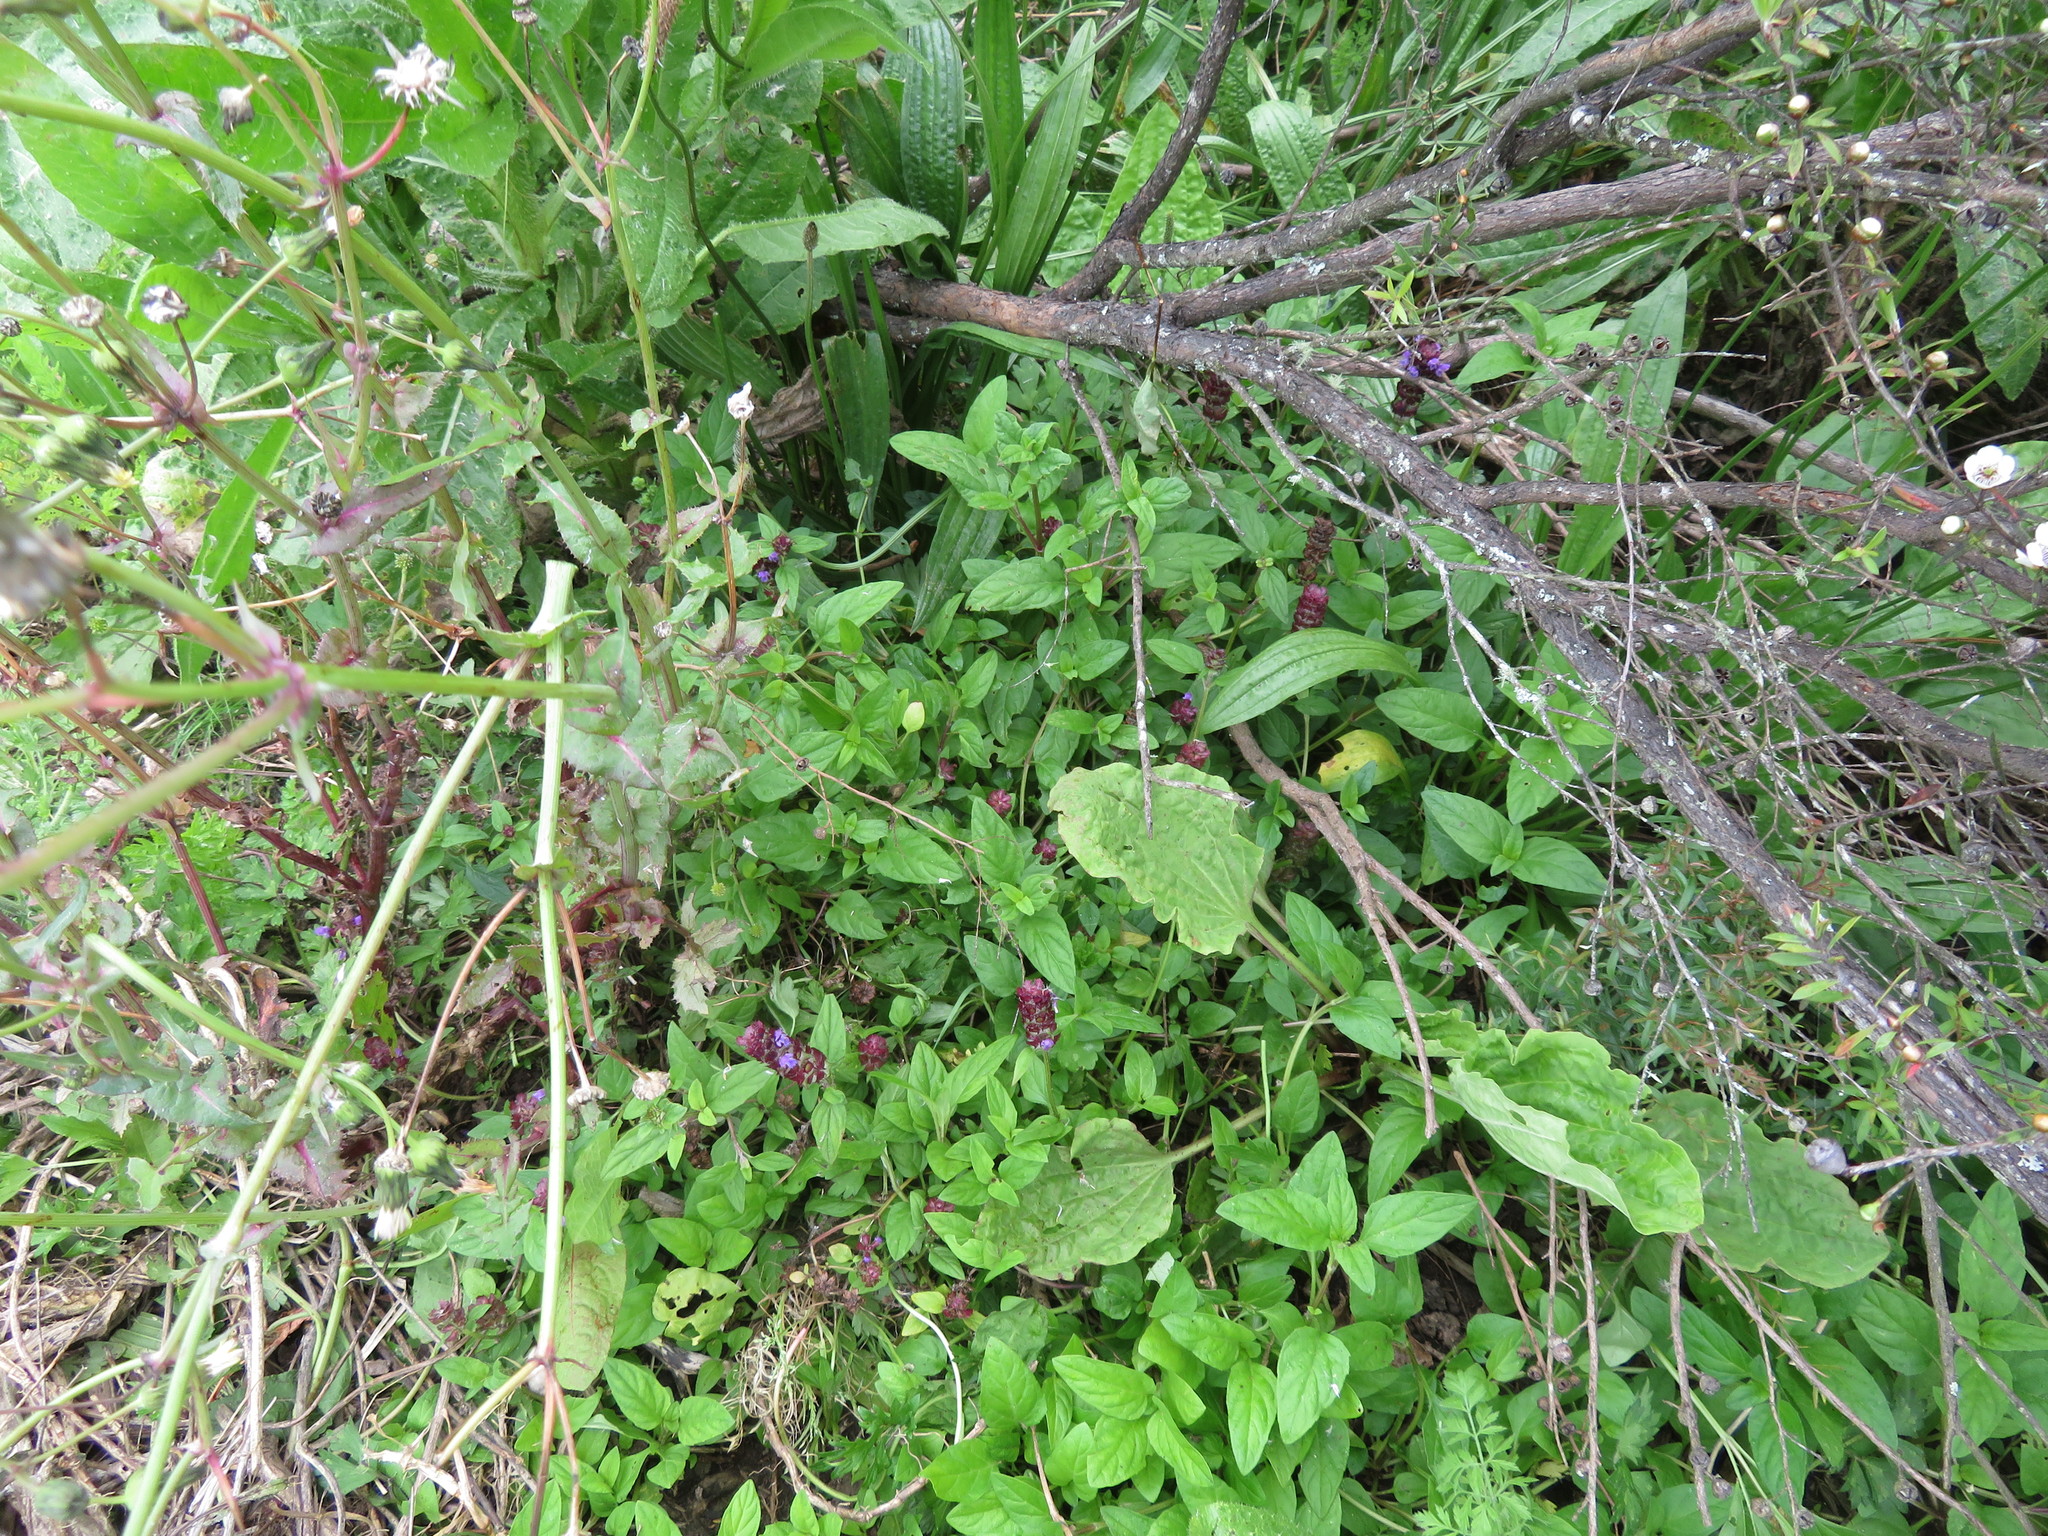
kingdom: Plantae
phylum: Tracheophyta
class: Magnoliopsida
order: Asterales
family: Asteraceae
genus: Sonchus
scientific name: Sonchus oleraceus
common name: Common sowthistle
